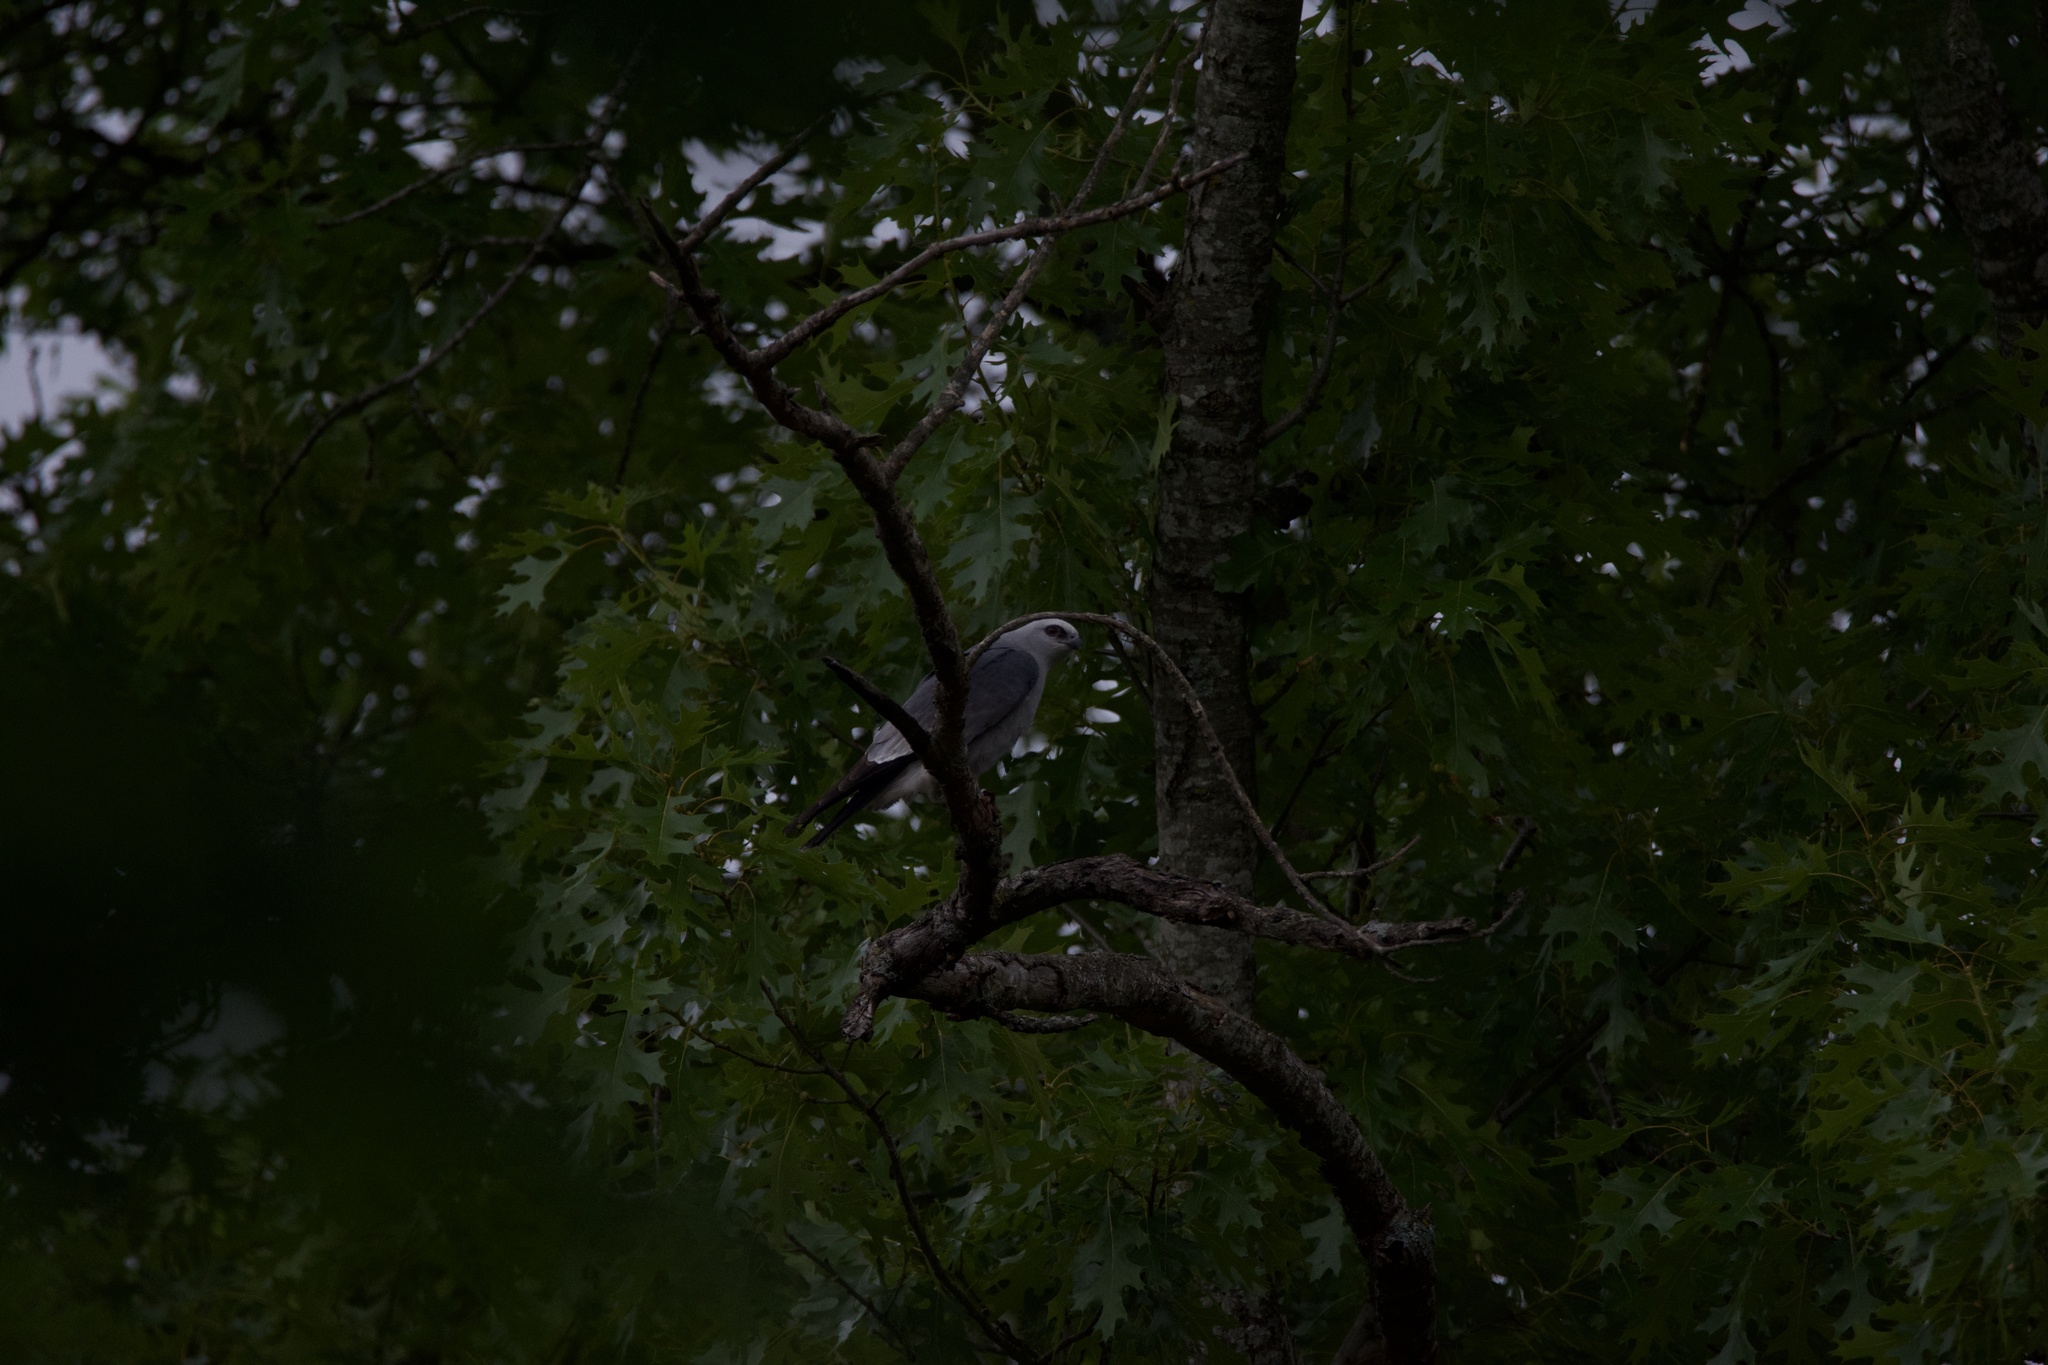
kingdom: Animalia
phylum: Chordata
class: Aves
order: Accipitriformes
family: Accipitridae
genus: Ictinia
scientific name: Ictinia mississippiensis
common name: Mississippi kite
